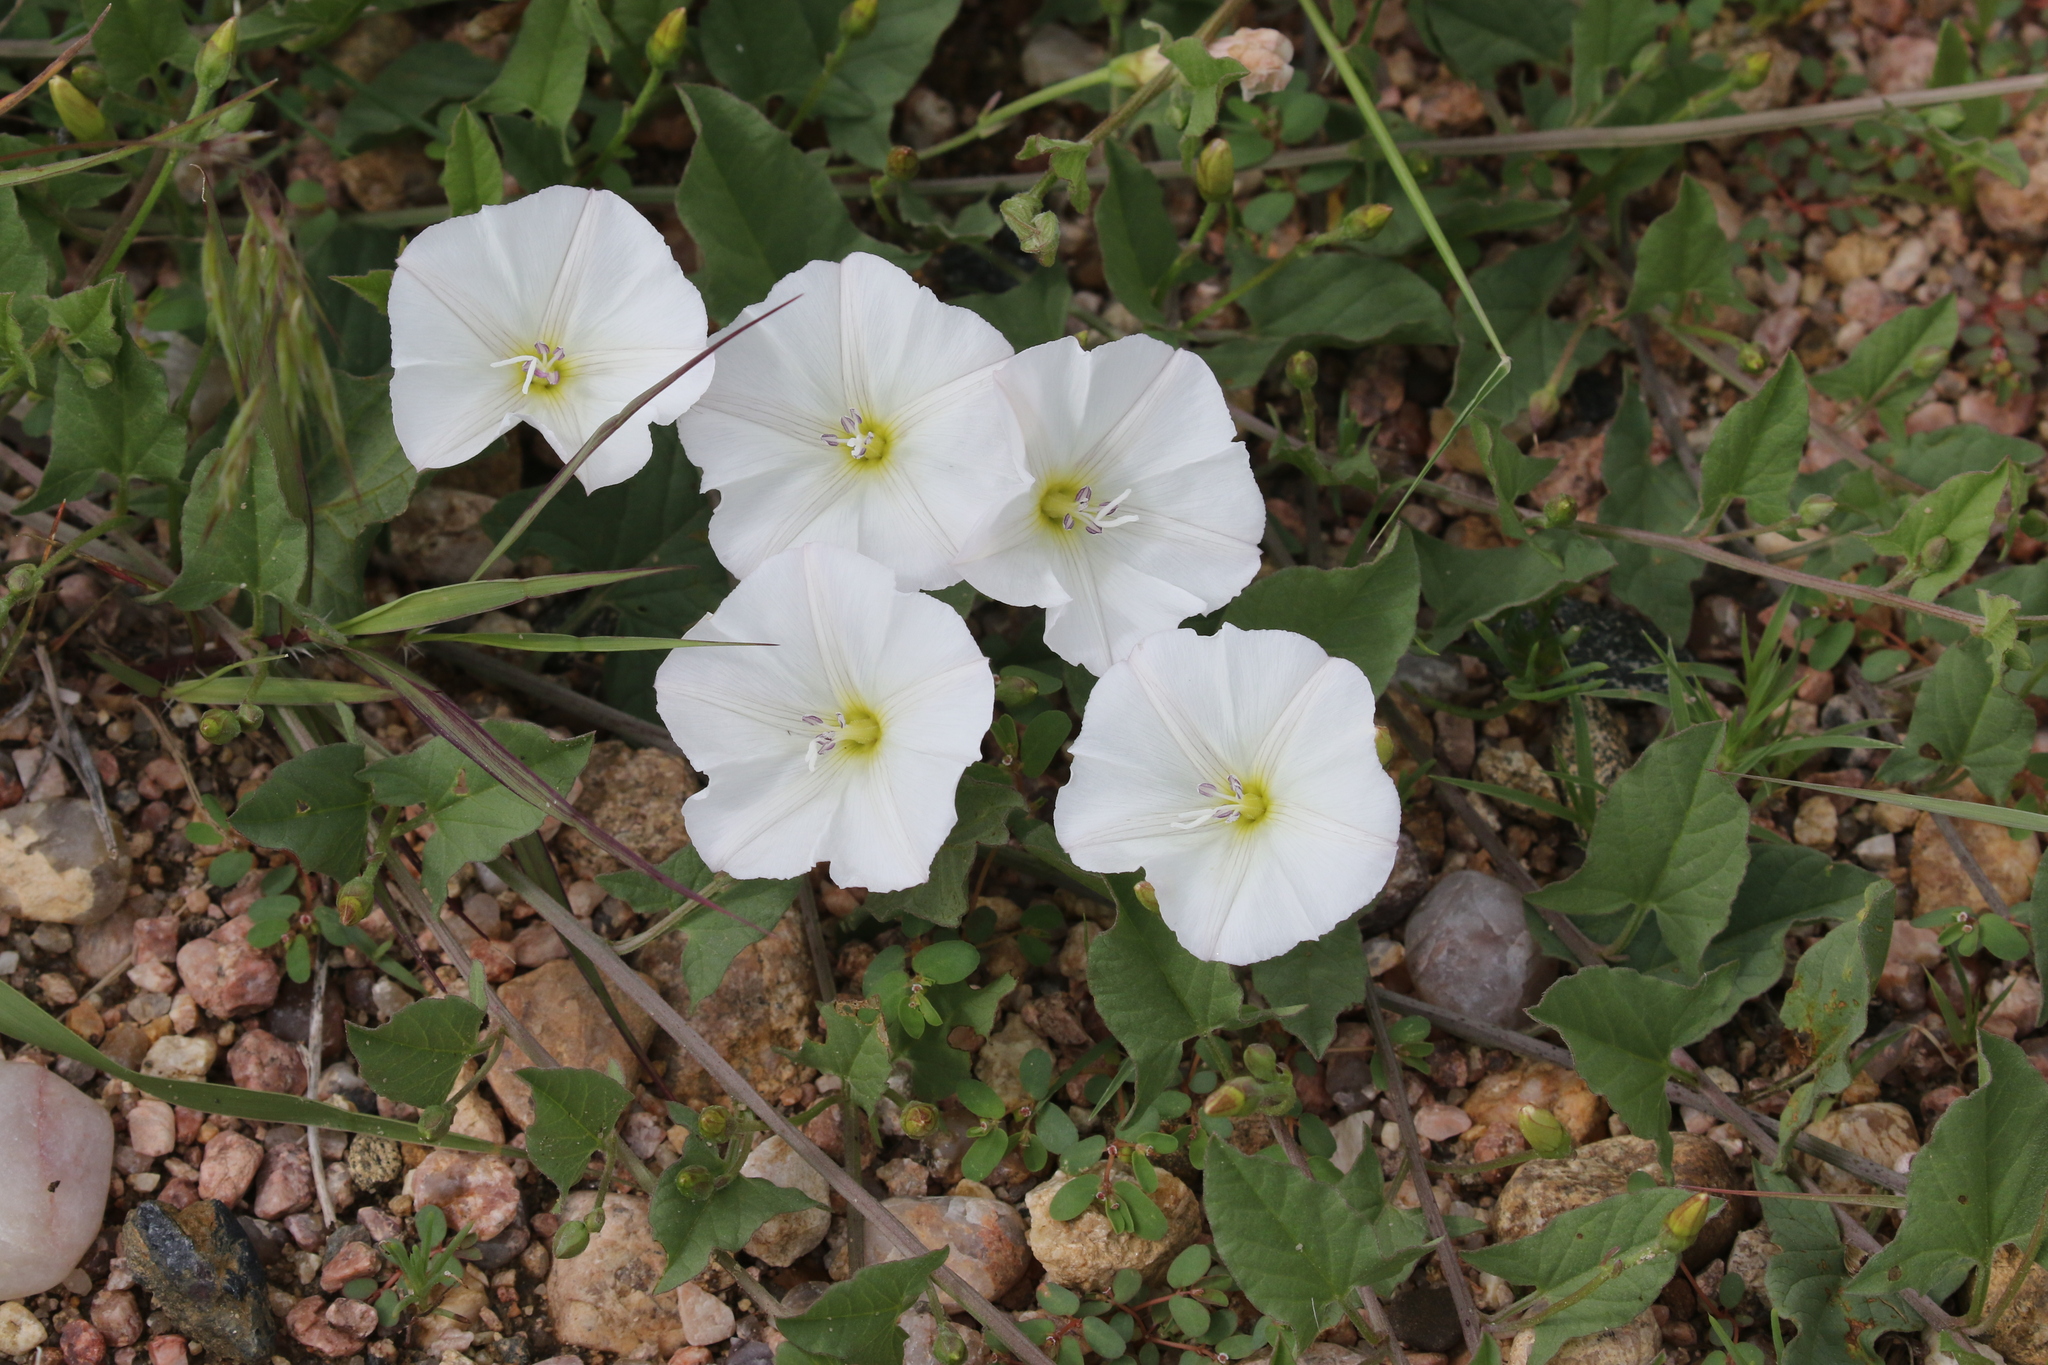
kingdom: Plantae
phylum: Tracheophyta
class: Magnoliopsida
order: Solanales
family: Convolvulaceae
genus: Convolvulus
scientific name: Convolvulus arvensis
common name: Field bindweed
